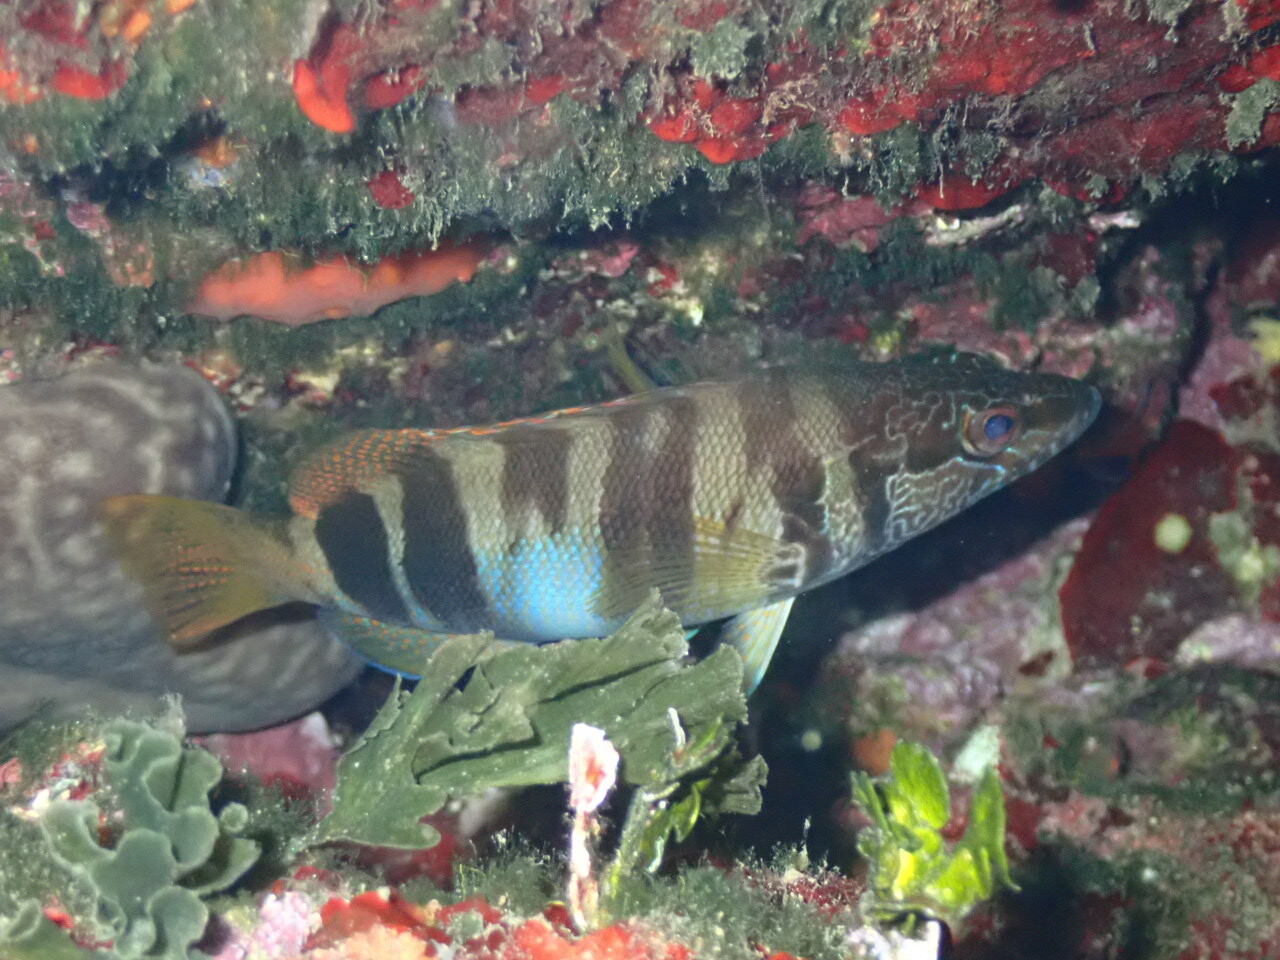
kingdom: Animalia
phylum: Chordata
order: Perciformes
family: Serranidae
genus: Serranus
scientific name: Serranus scriba
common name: Painted comber
